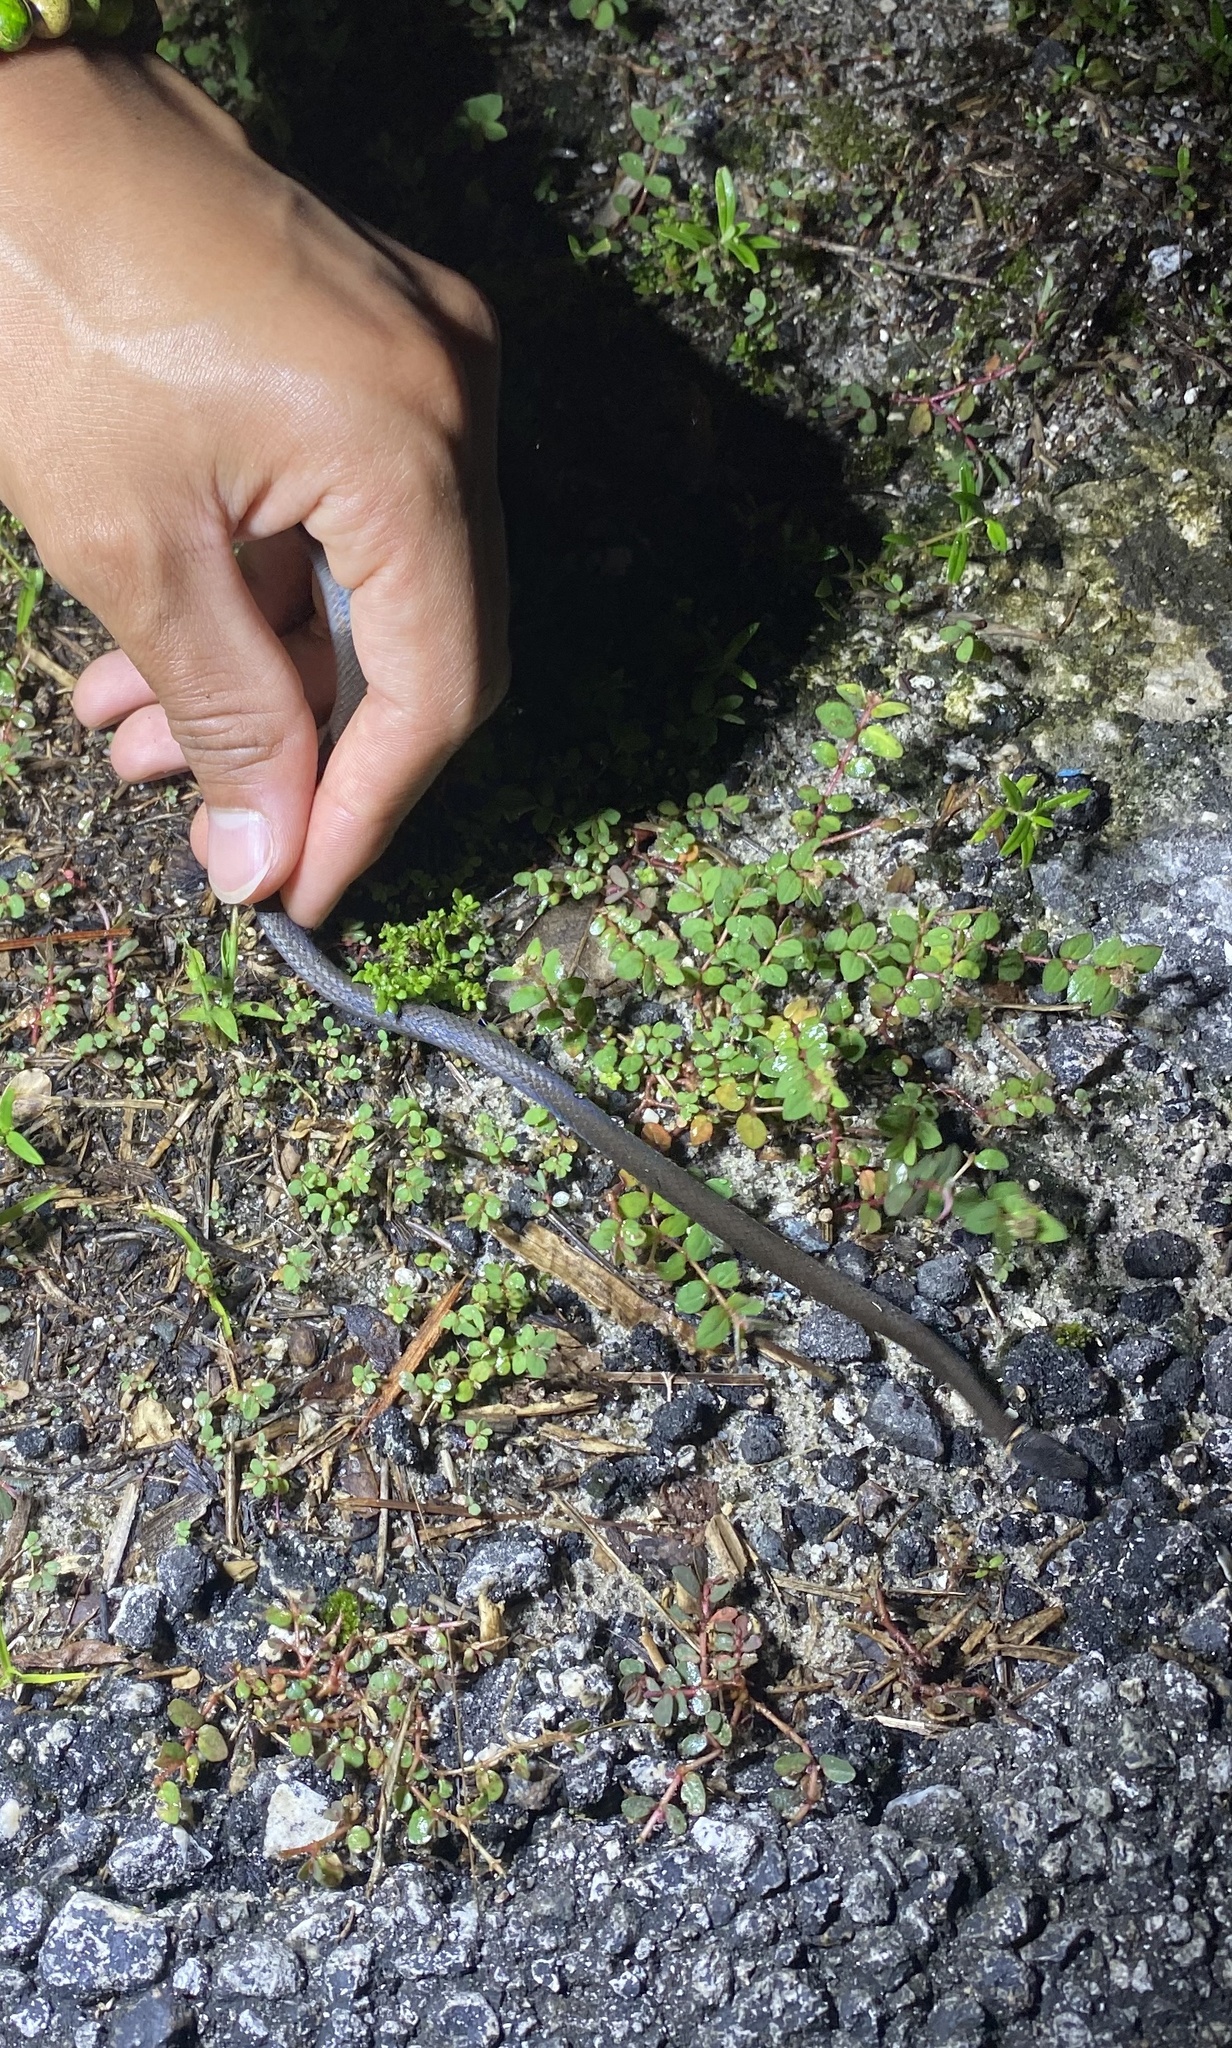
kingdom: Animalia
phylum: Chordata
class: Squamata
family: Colubridae
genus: Diadophis
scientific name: Diadophis punctatus
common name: Ringneck snake
